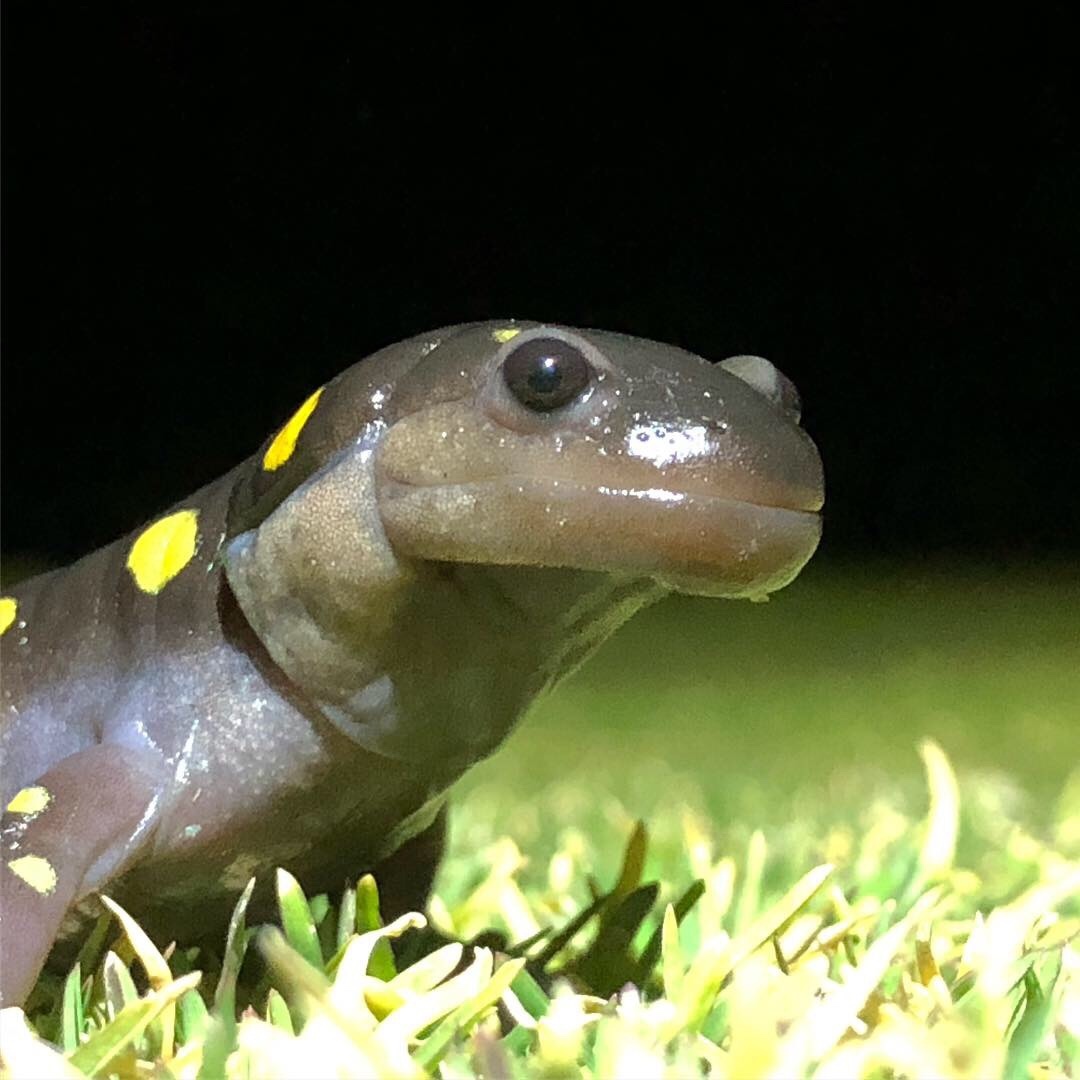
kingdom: Animalia
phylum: Chordata
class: Amphibia
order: Caudata
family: Ambystomatidae
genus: Ambystoma
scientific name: Ambystoma maculatum
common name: Spotted salamander
